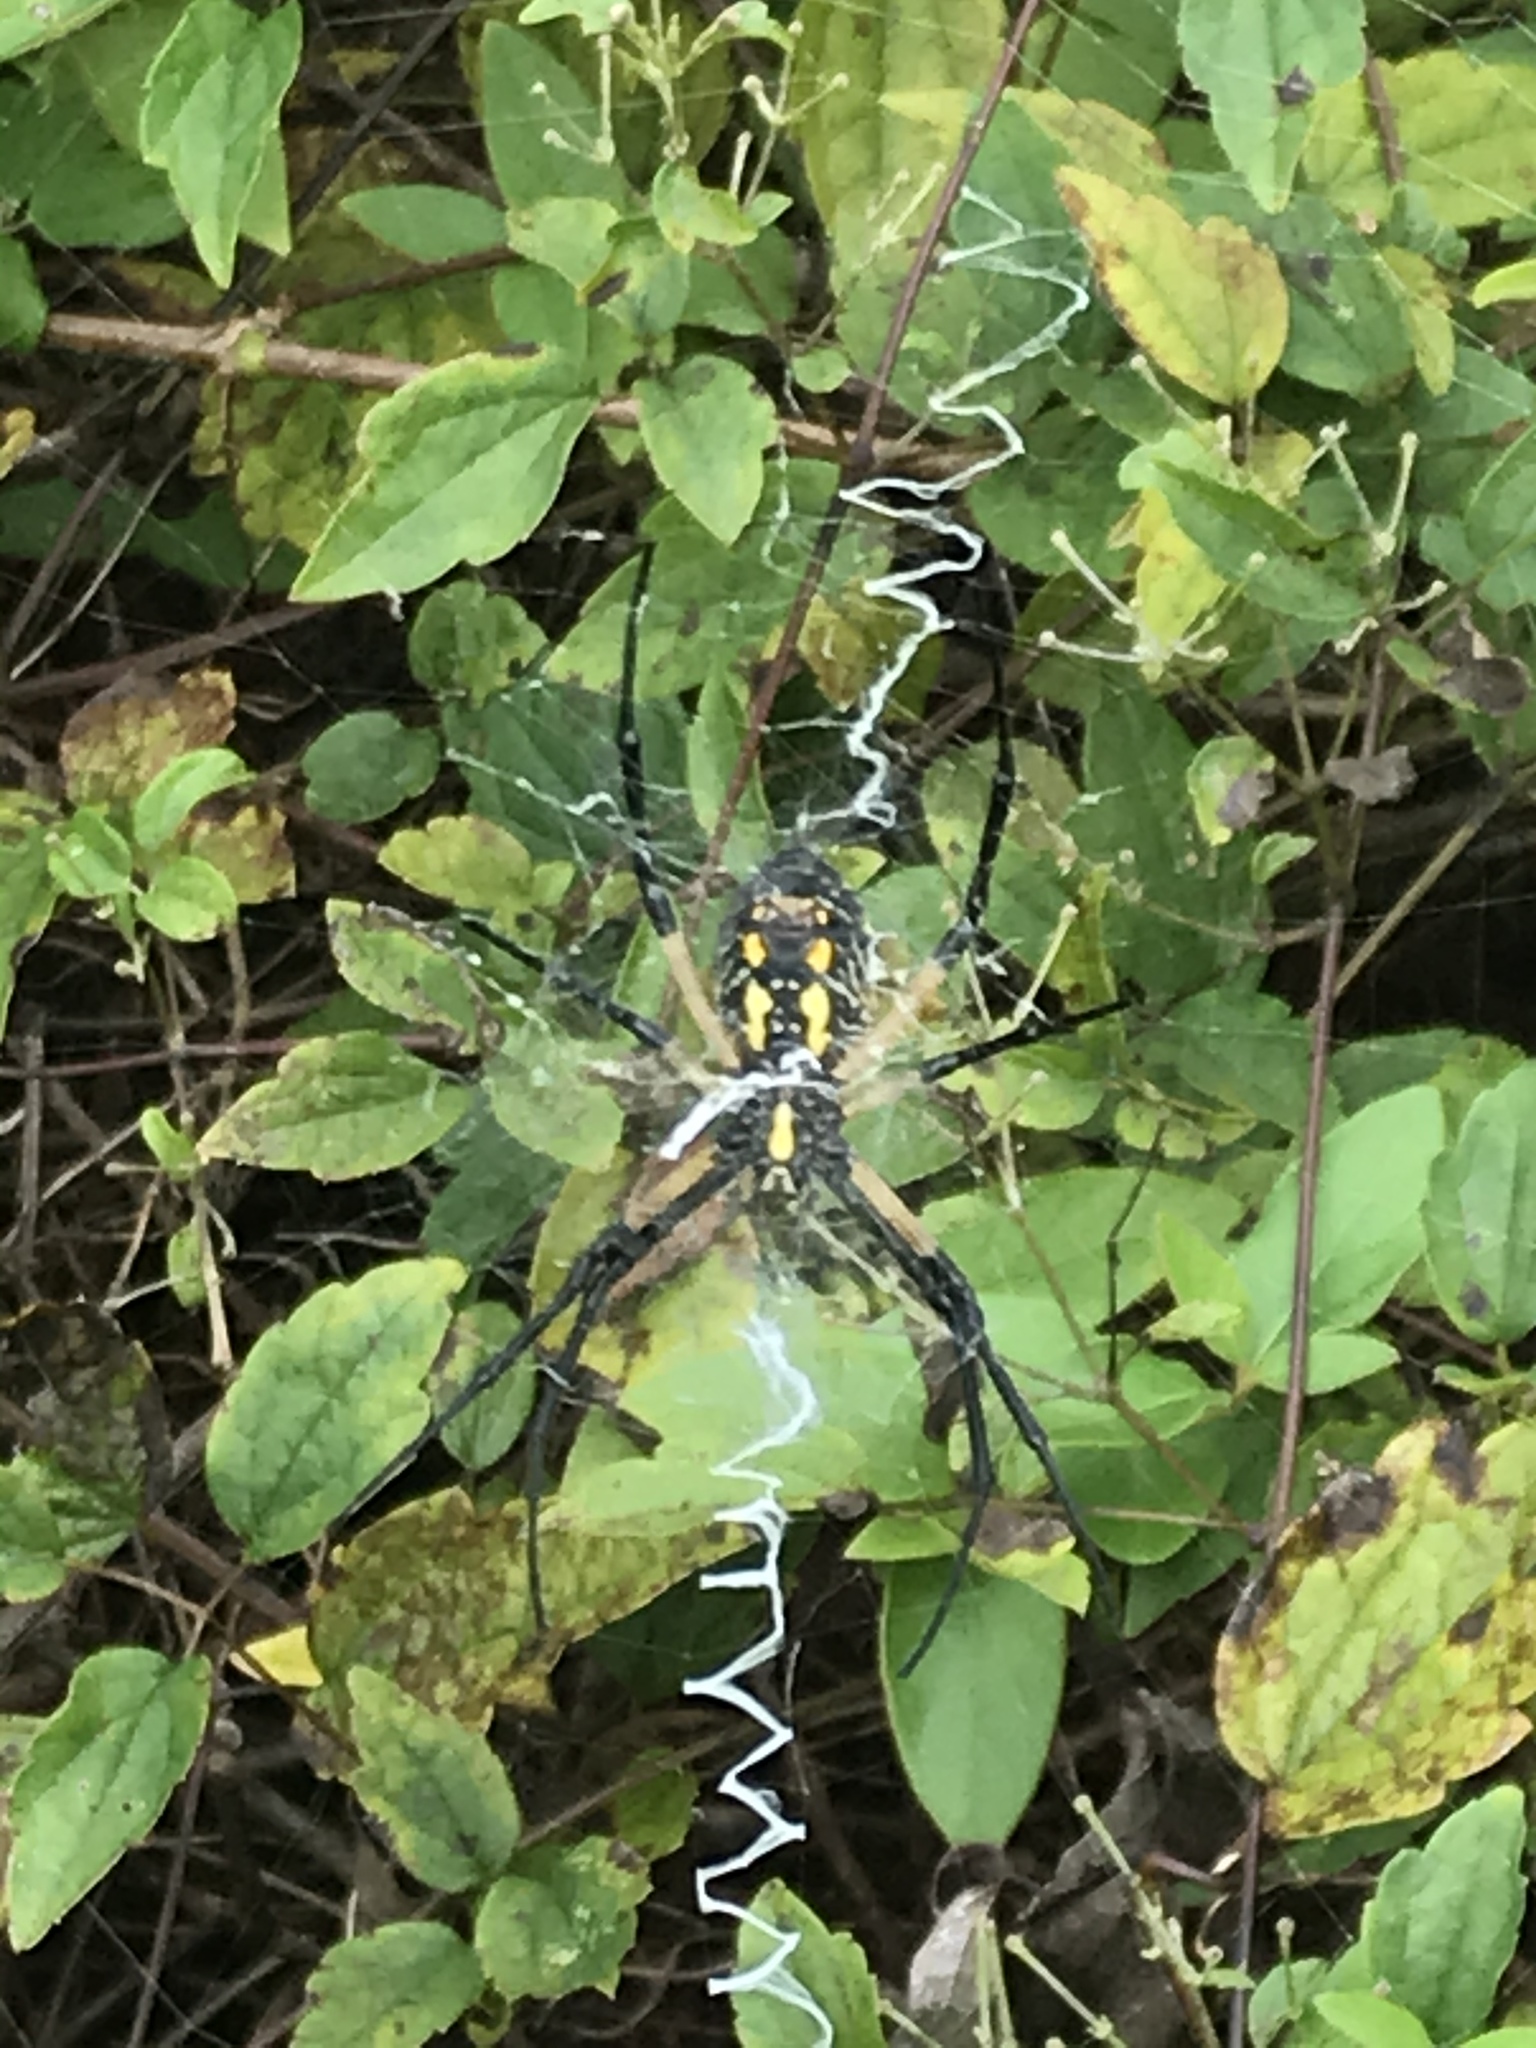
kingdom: Animalia
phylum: Arthropoda
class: Arachnida
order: Araneae
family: Araneidae
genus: Argiope
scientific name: Argiope aurantia
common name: Orb weavers
